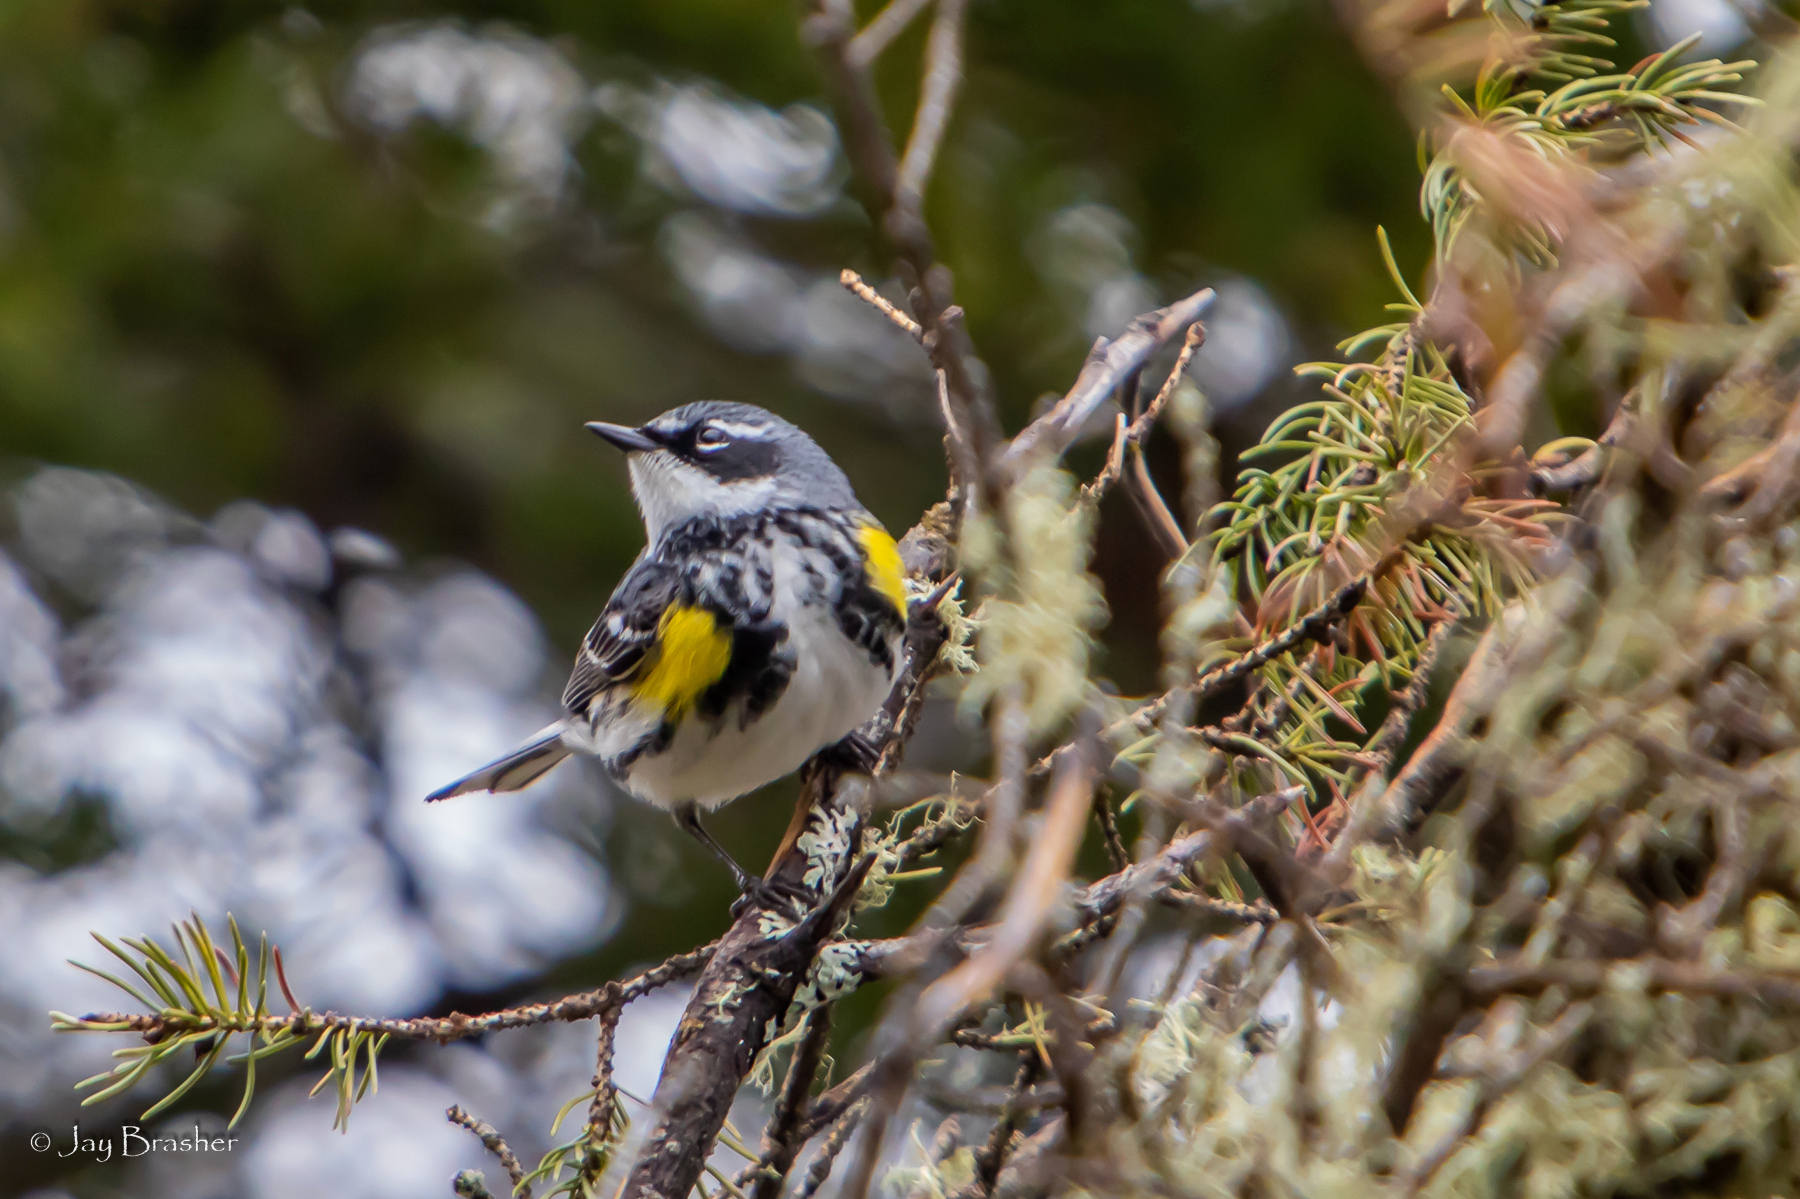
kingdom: Animalia
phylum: Chordata
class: Aves
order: Passeriformes
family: Parulidae
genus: Setophaga
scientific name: Setophaga coronata
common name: Myrtle warbler
